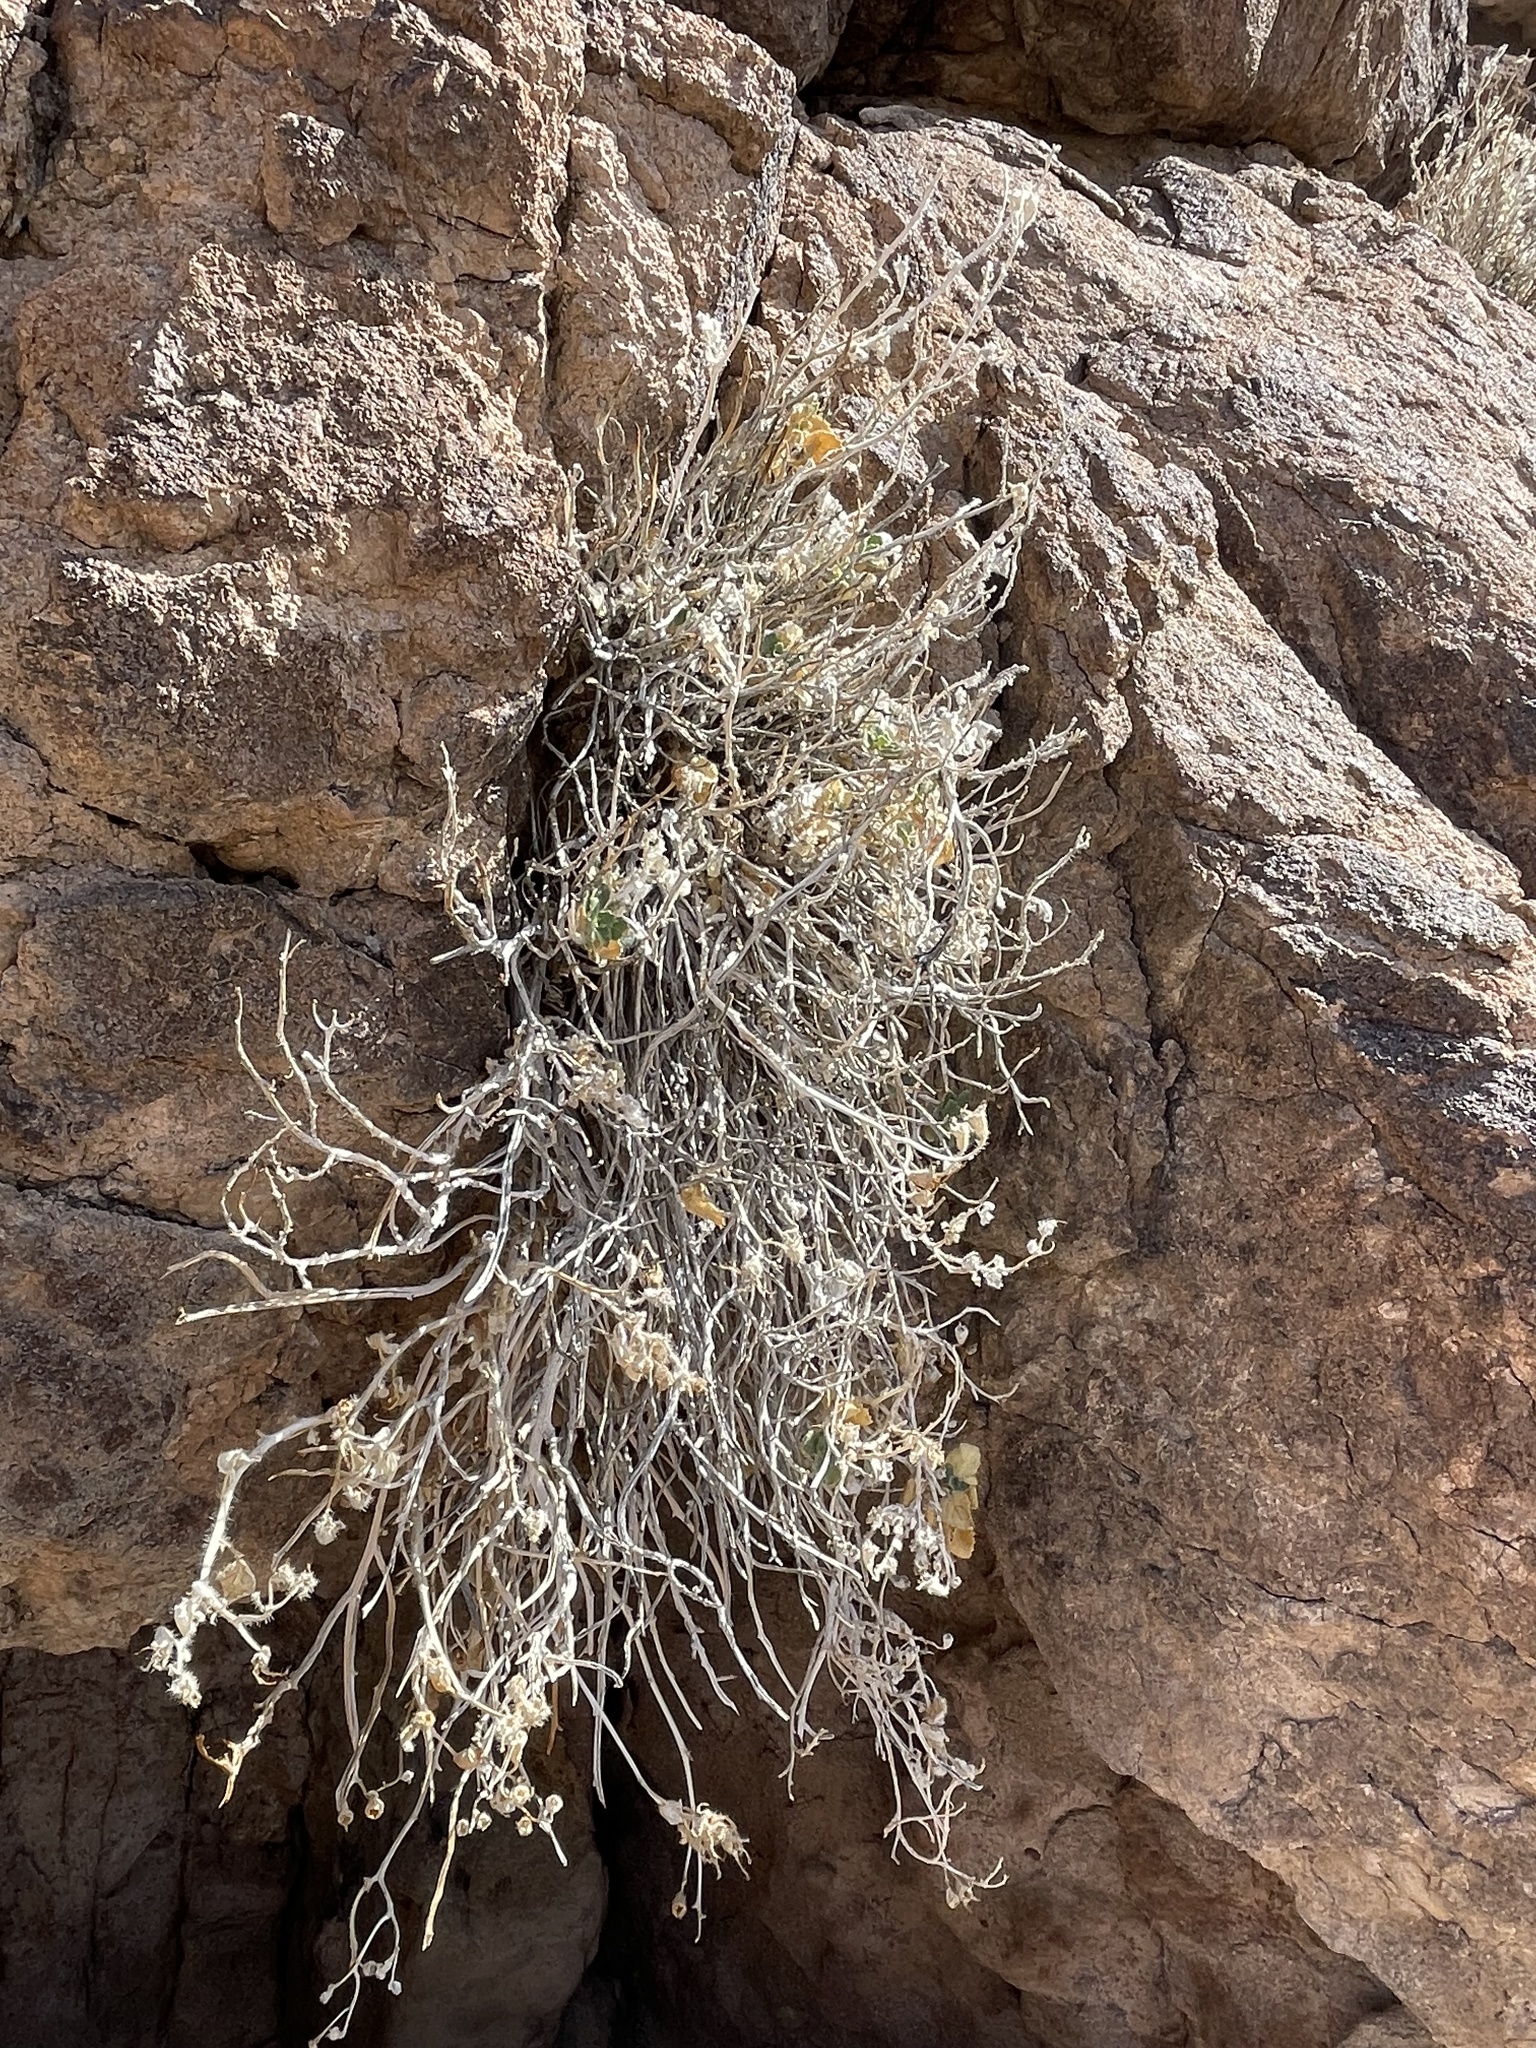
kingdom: Plantae
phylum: Tracheophyta
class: Magnoliopsida
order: Cornales
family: Loasaceae
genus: Eucnide
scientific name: Eucnide urens
